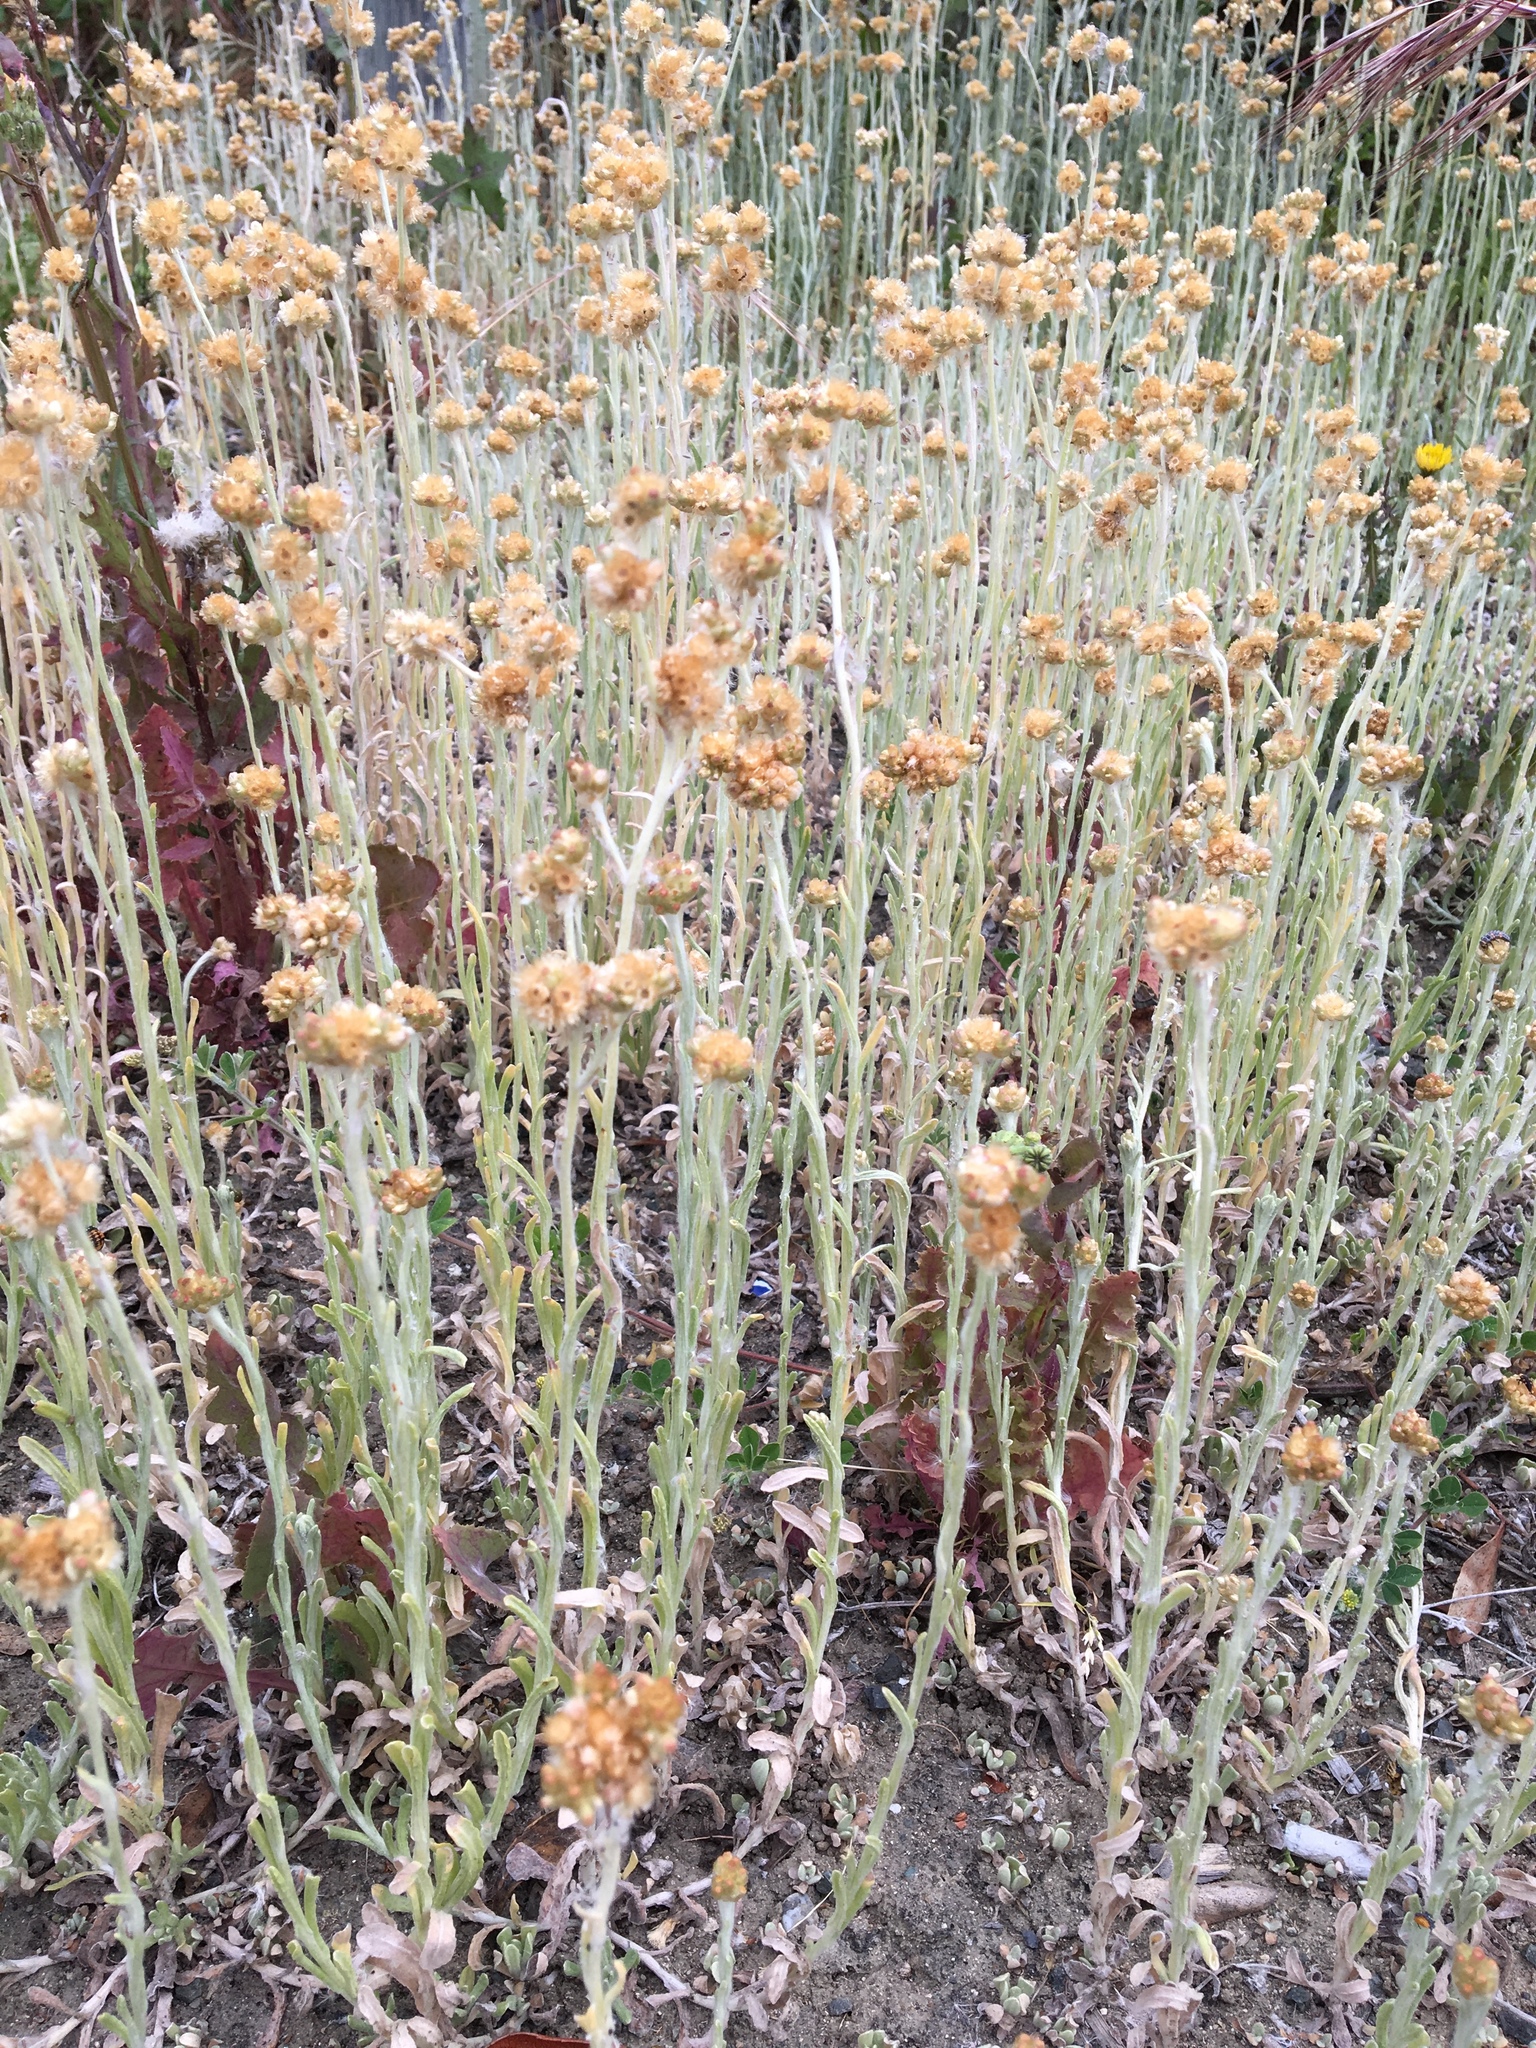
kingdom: Plantae
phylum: Tracheophyta
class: Magnoliopsida
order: Asterales
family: Asteraceae
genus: Helichrysum
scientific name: Helichrysum luteoalbum
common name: Daisy
